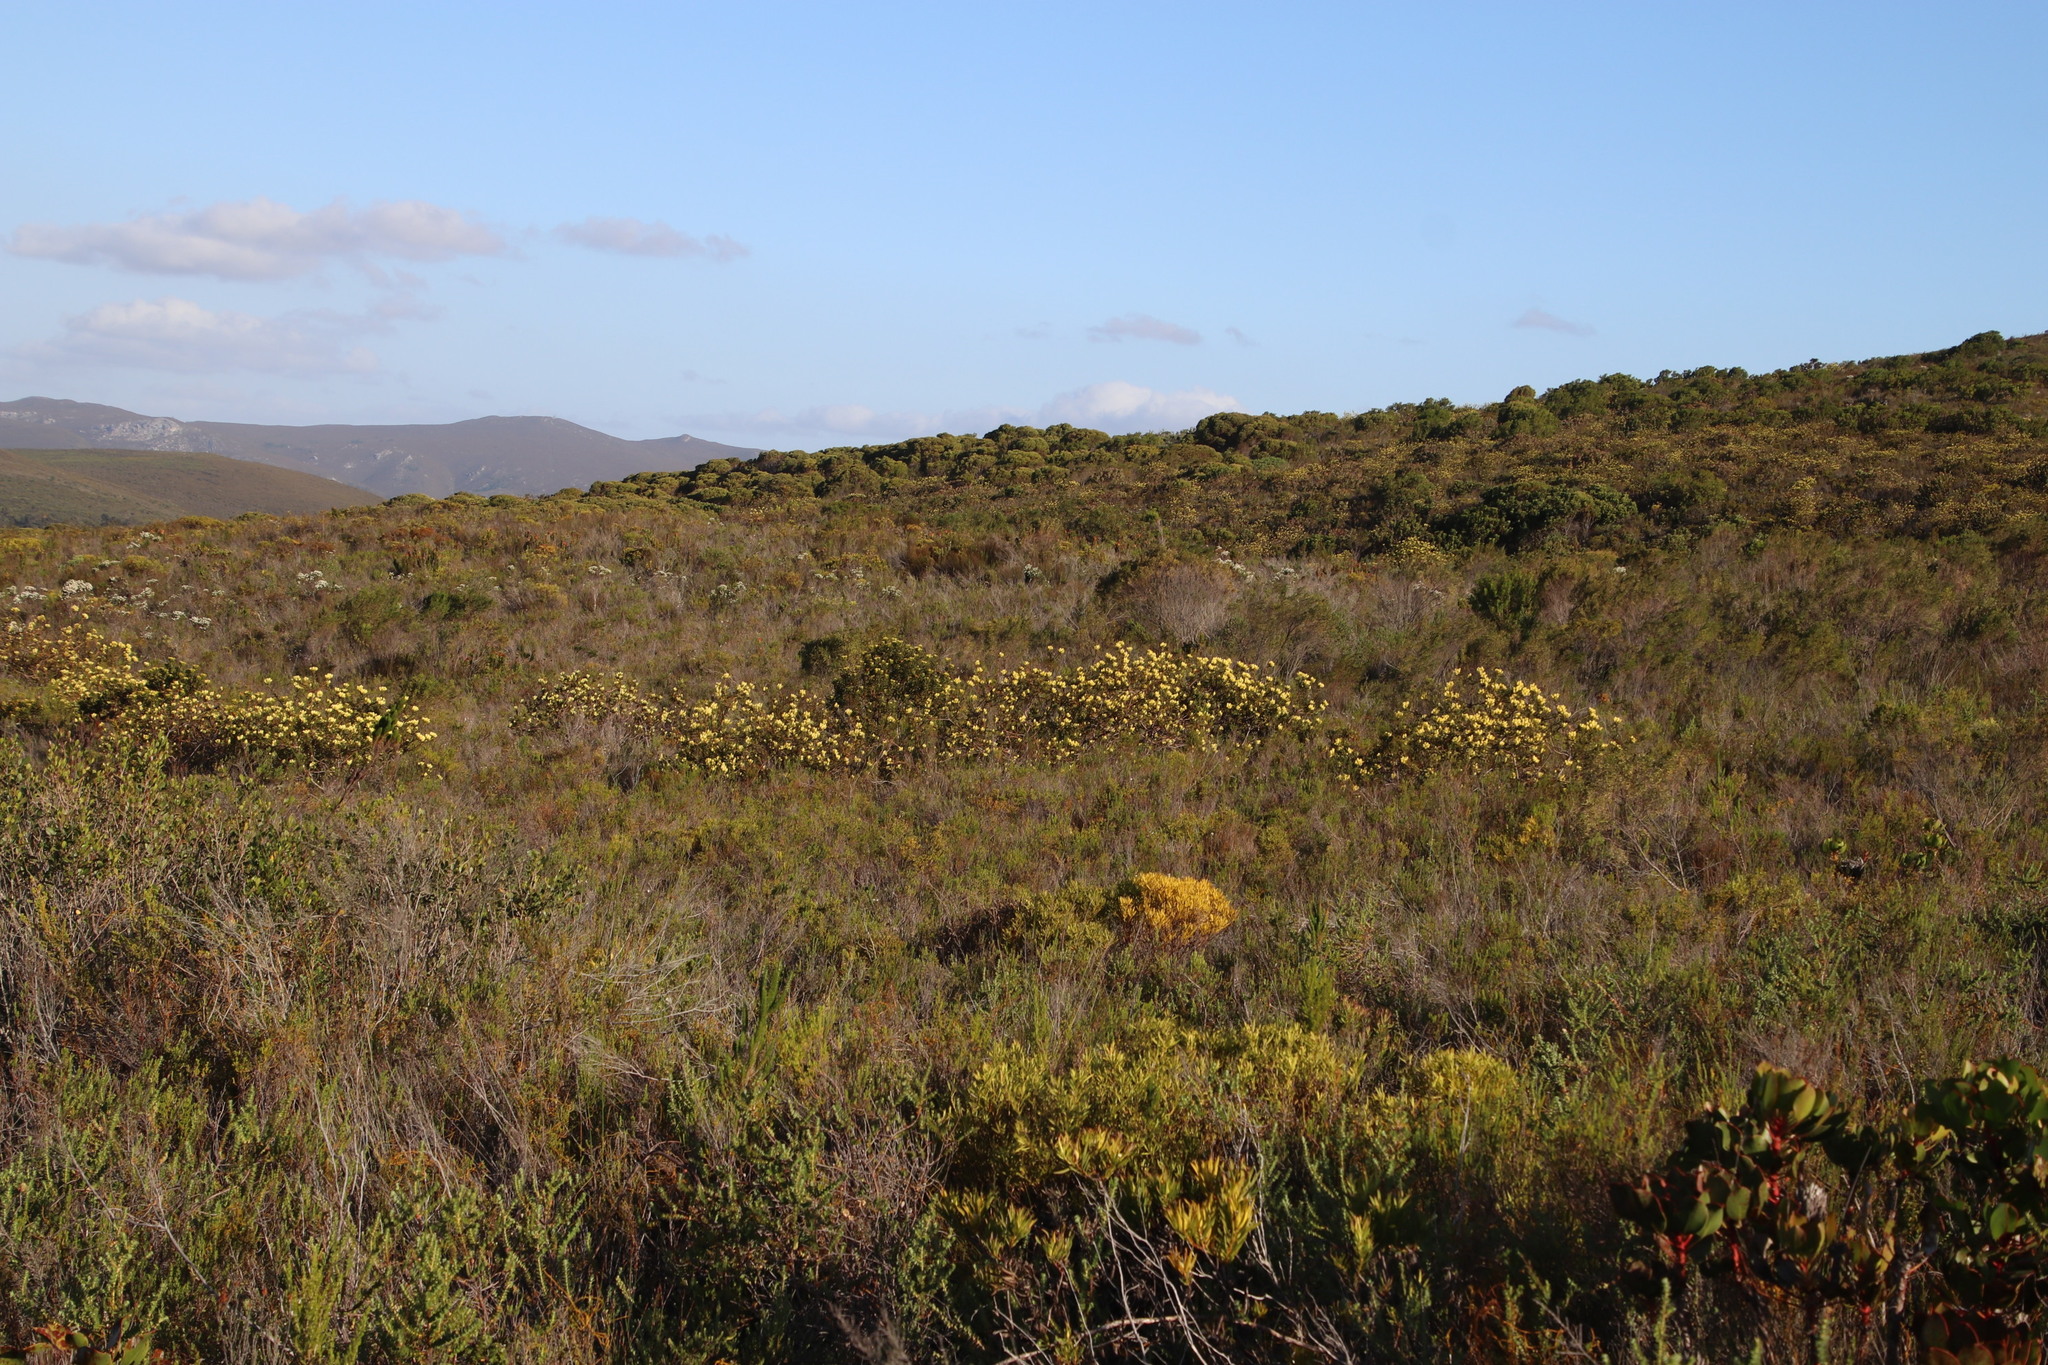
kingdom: Plantae
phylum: Tracheophyta
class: Magnoliopsida
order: Proteales
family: Proteaceae
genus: Aulax
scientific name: Aulax umbellata
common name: Broad-leaf featherbush
